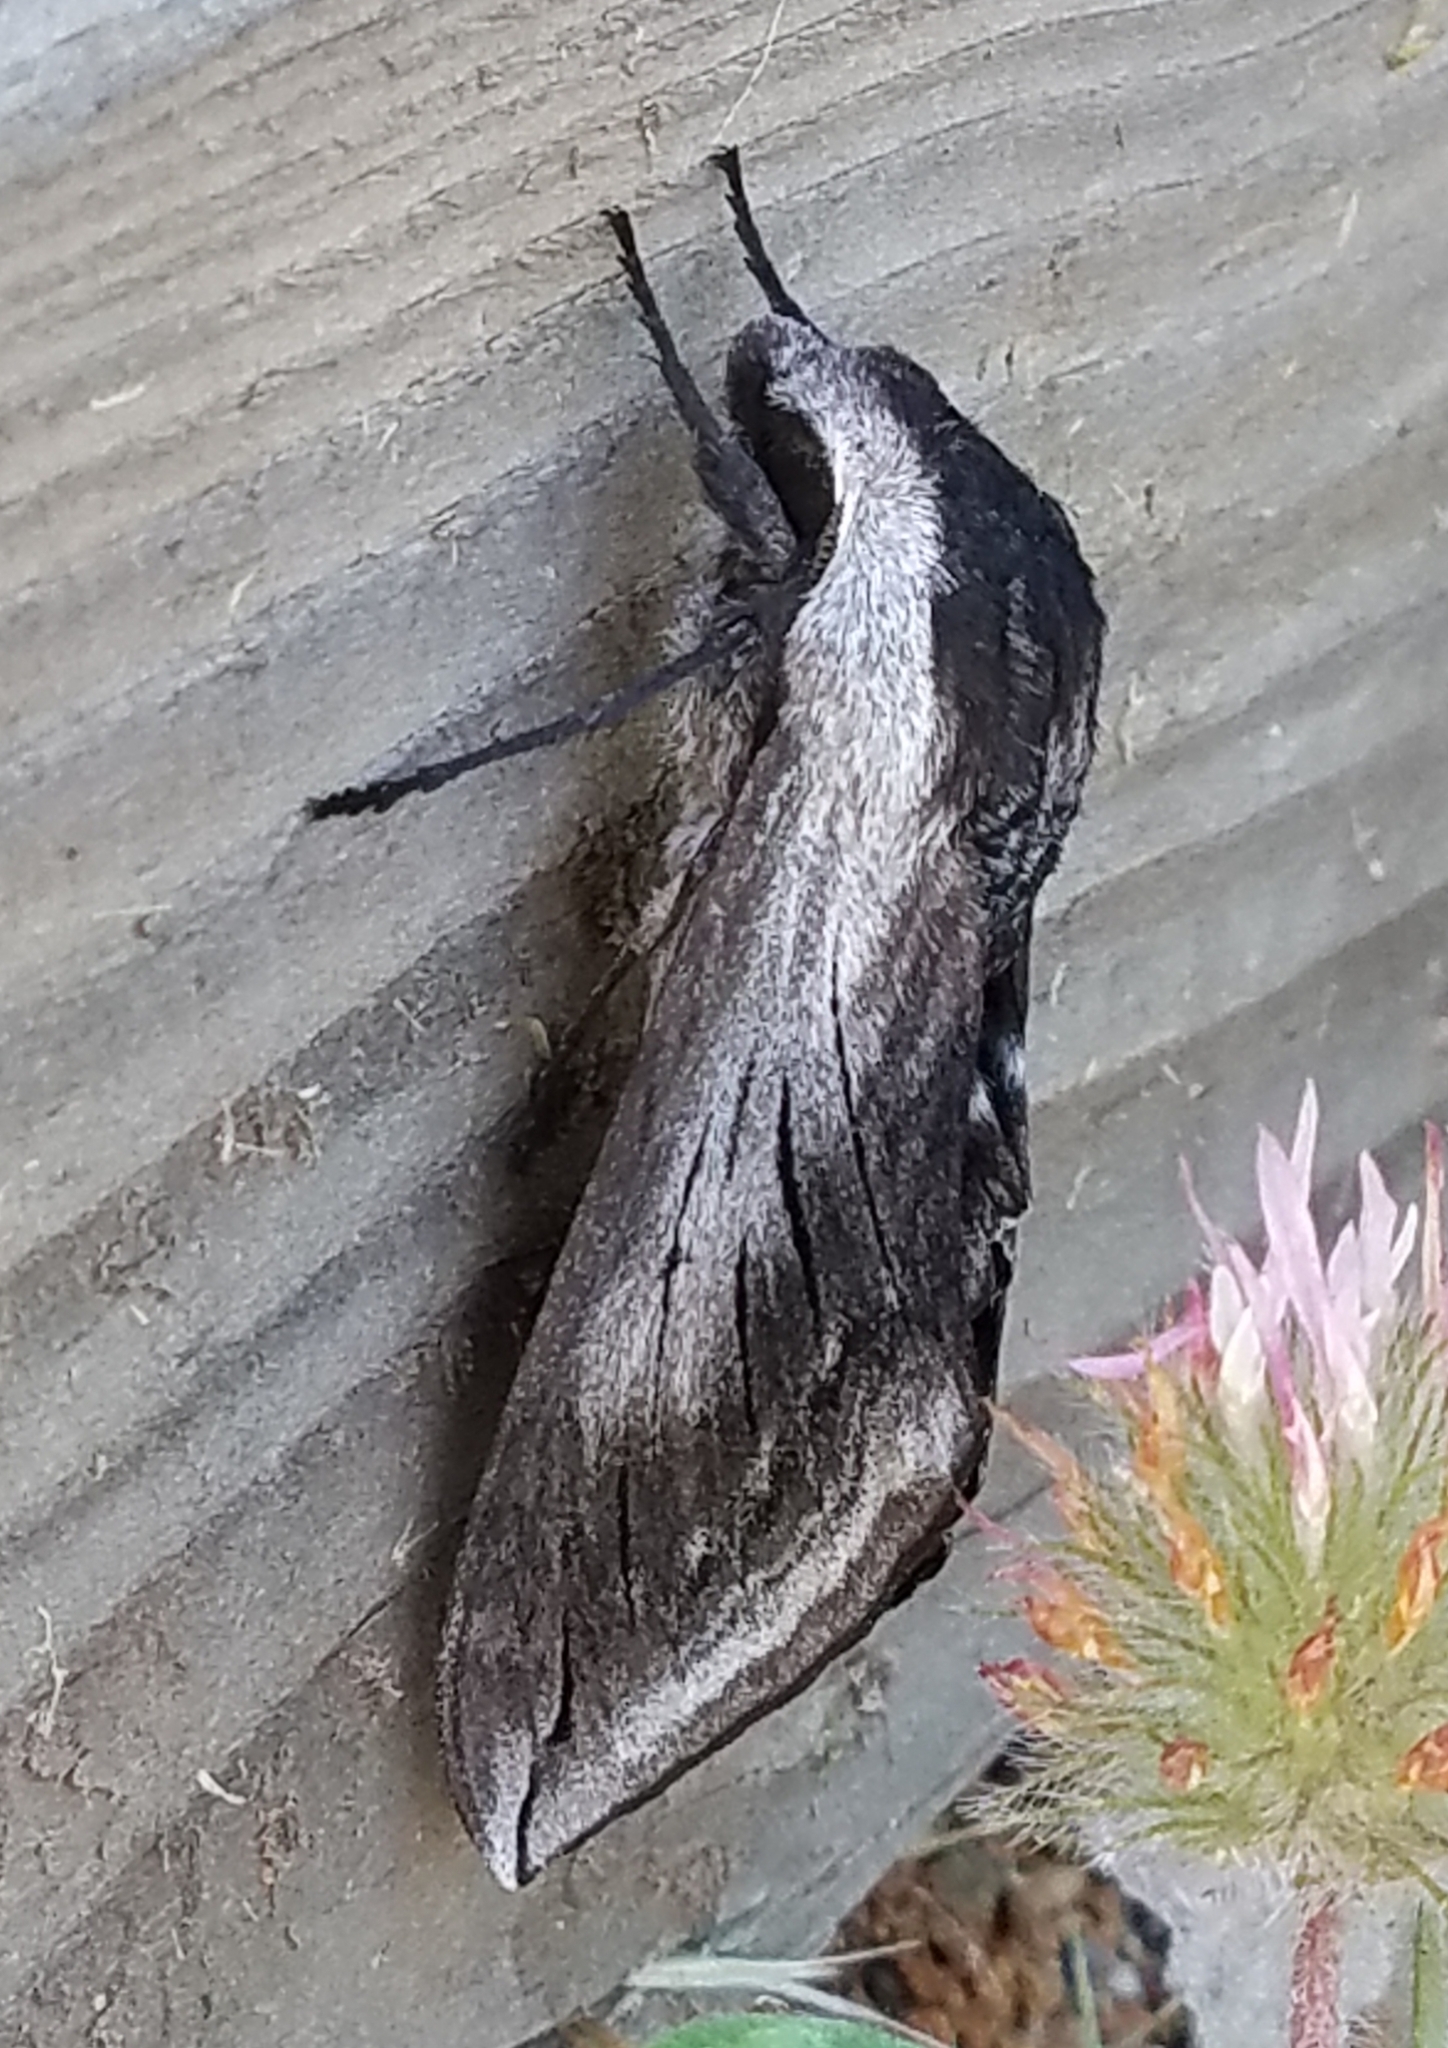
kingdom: Animalia
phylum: Arthropoda
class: Insecta
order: Lepidoptera
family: Sphingidae
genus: Sphinx
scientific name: Sphinx perelegans
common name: Elegant sphinx
